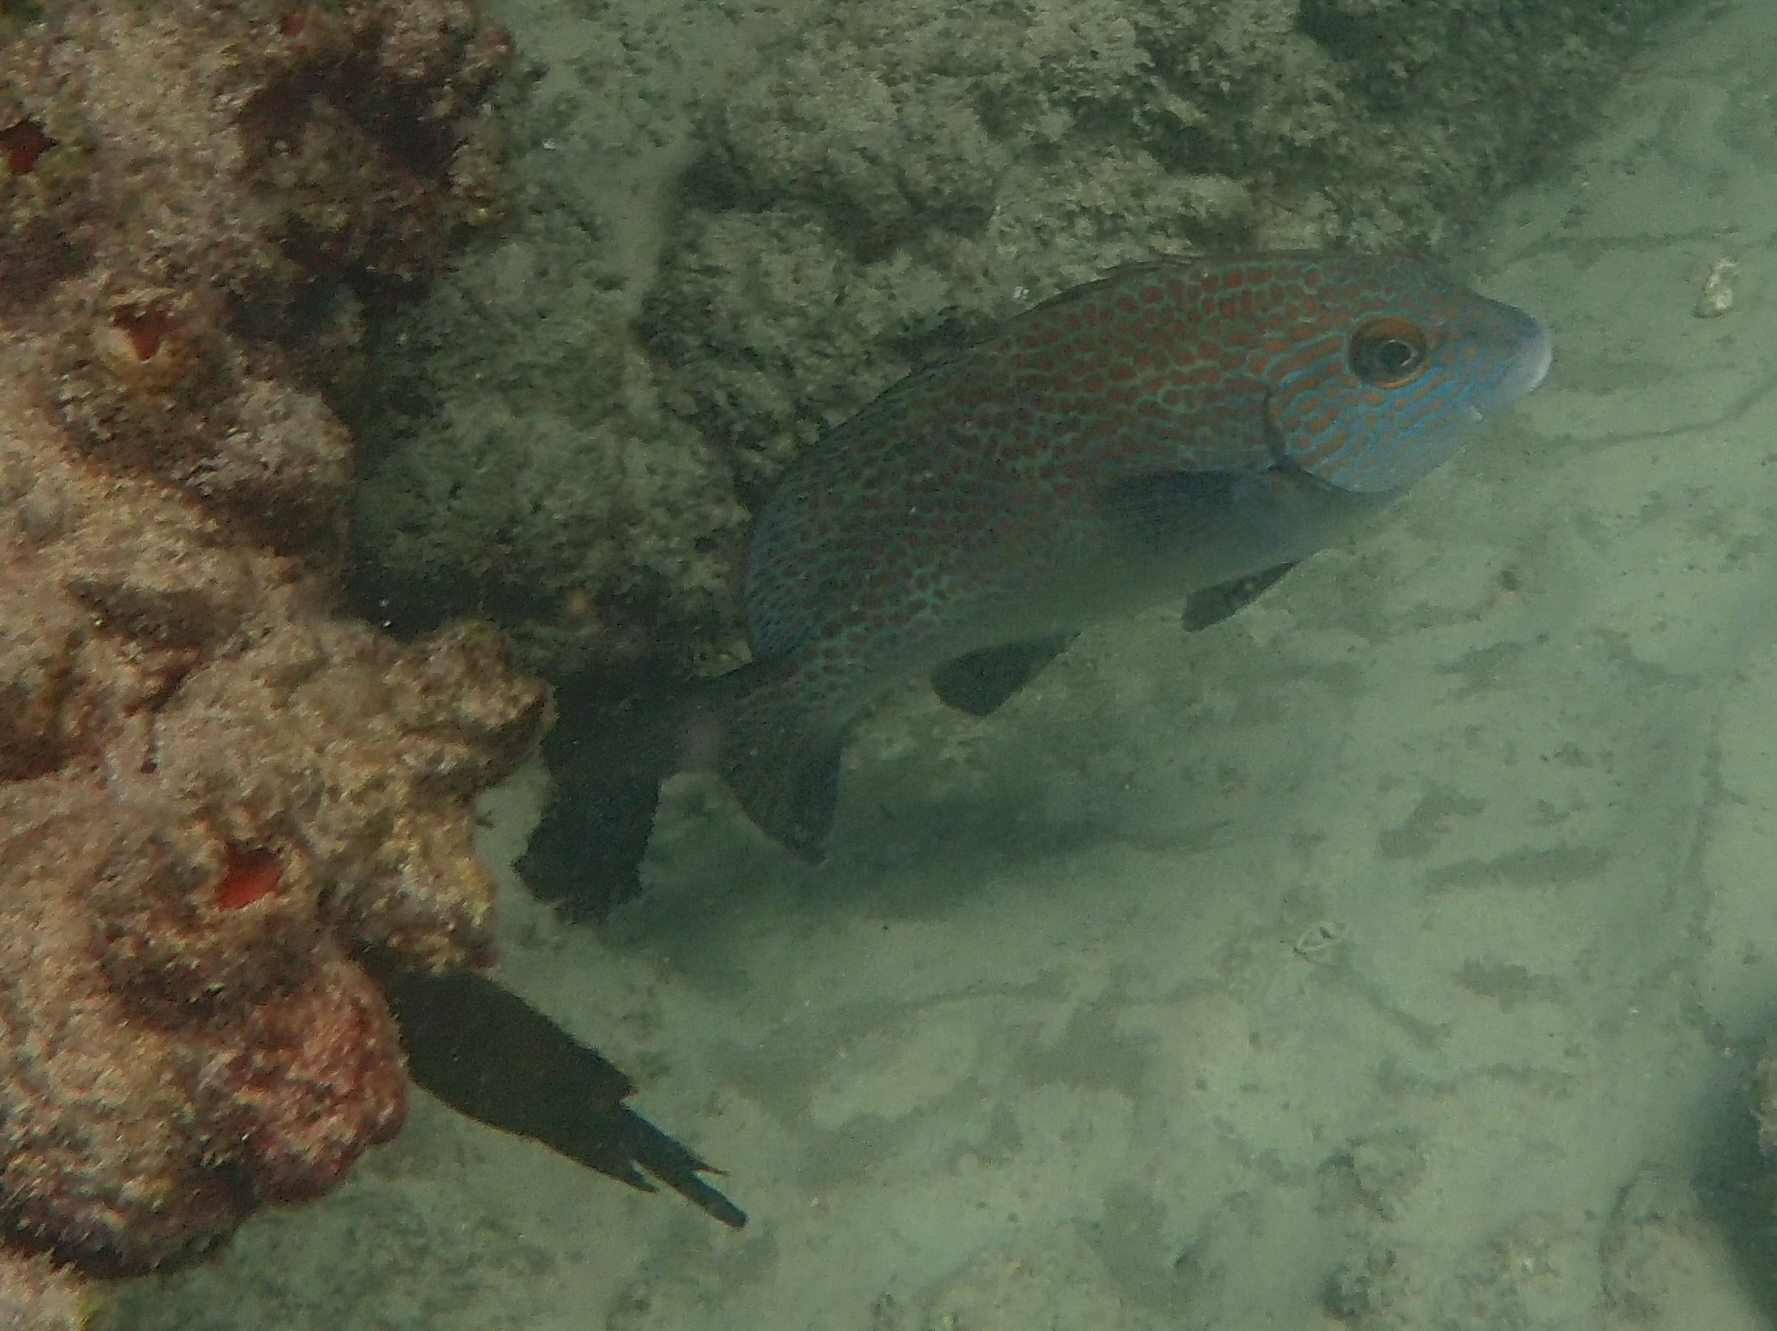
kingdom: Animalia
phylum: Chordata
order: Perciformes
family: Haemulidae
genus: Plectorhinchus
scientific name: Plectorhinchus flavomaculatus
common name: Netted sweetlips
